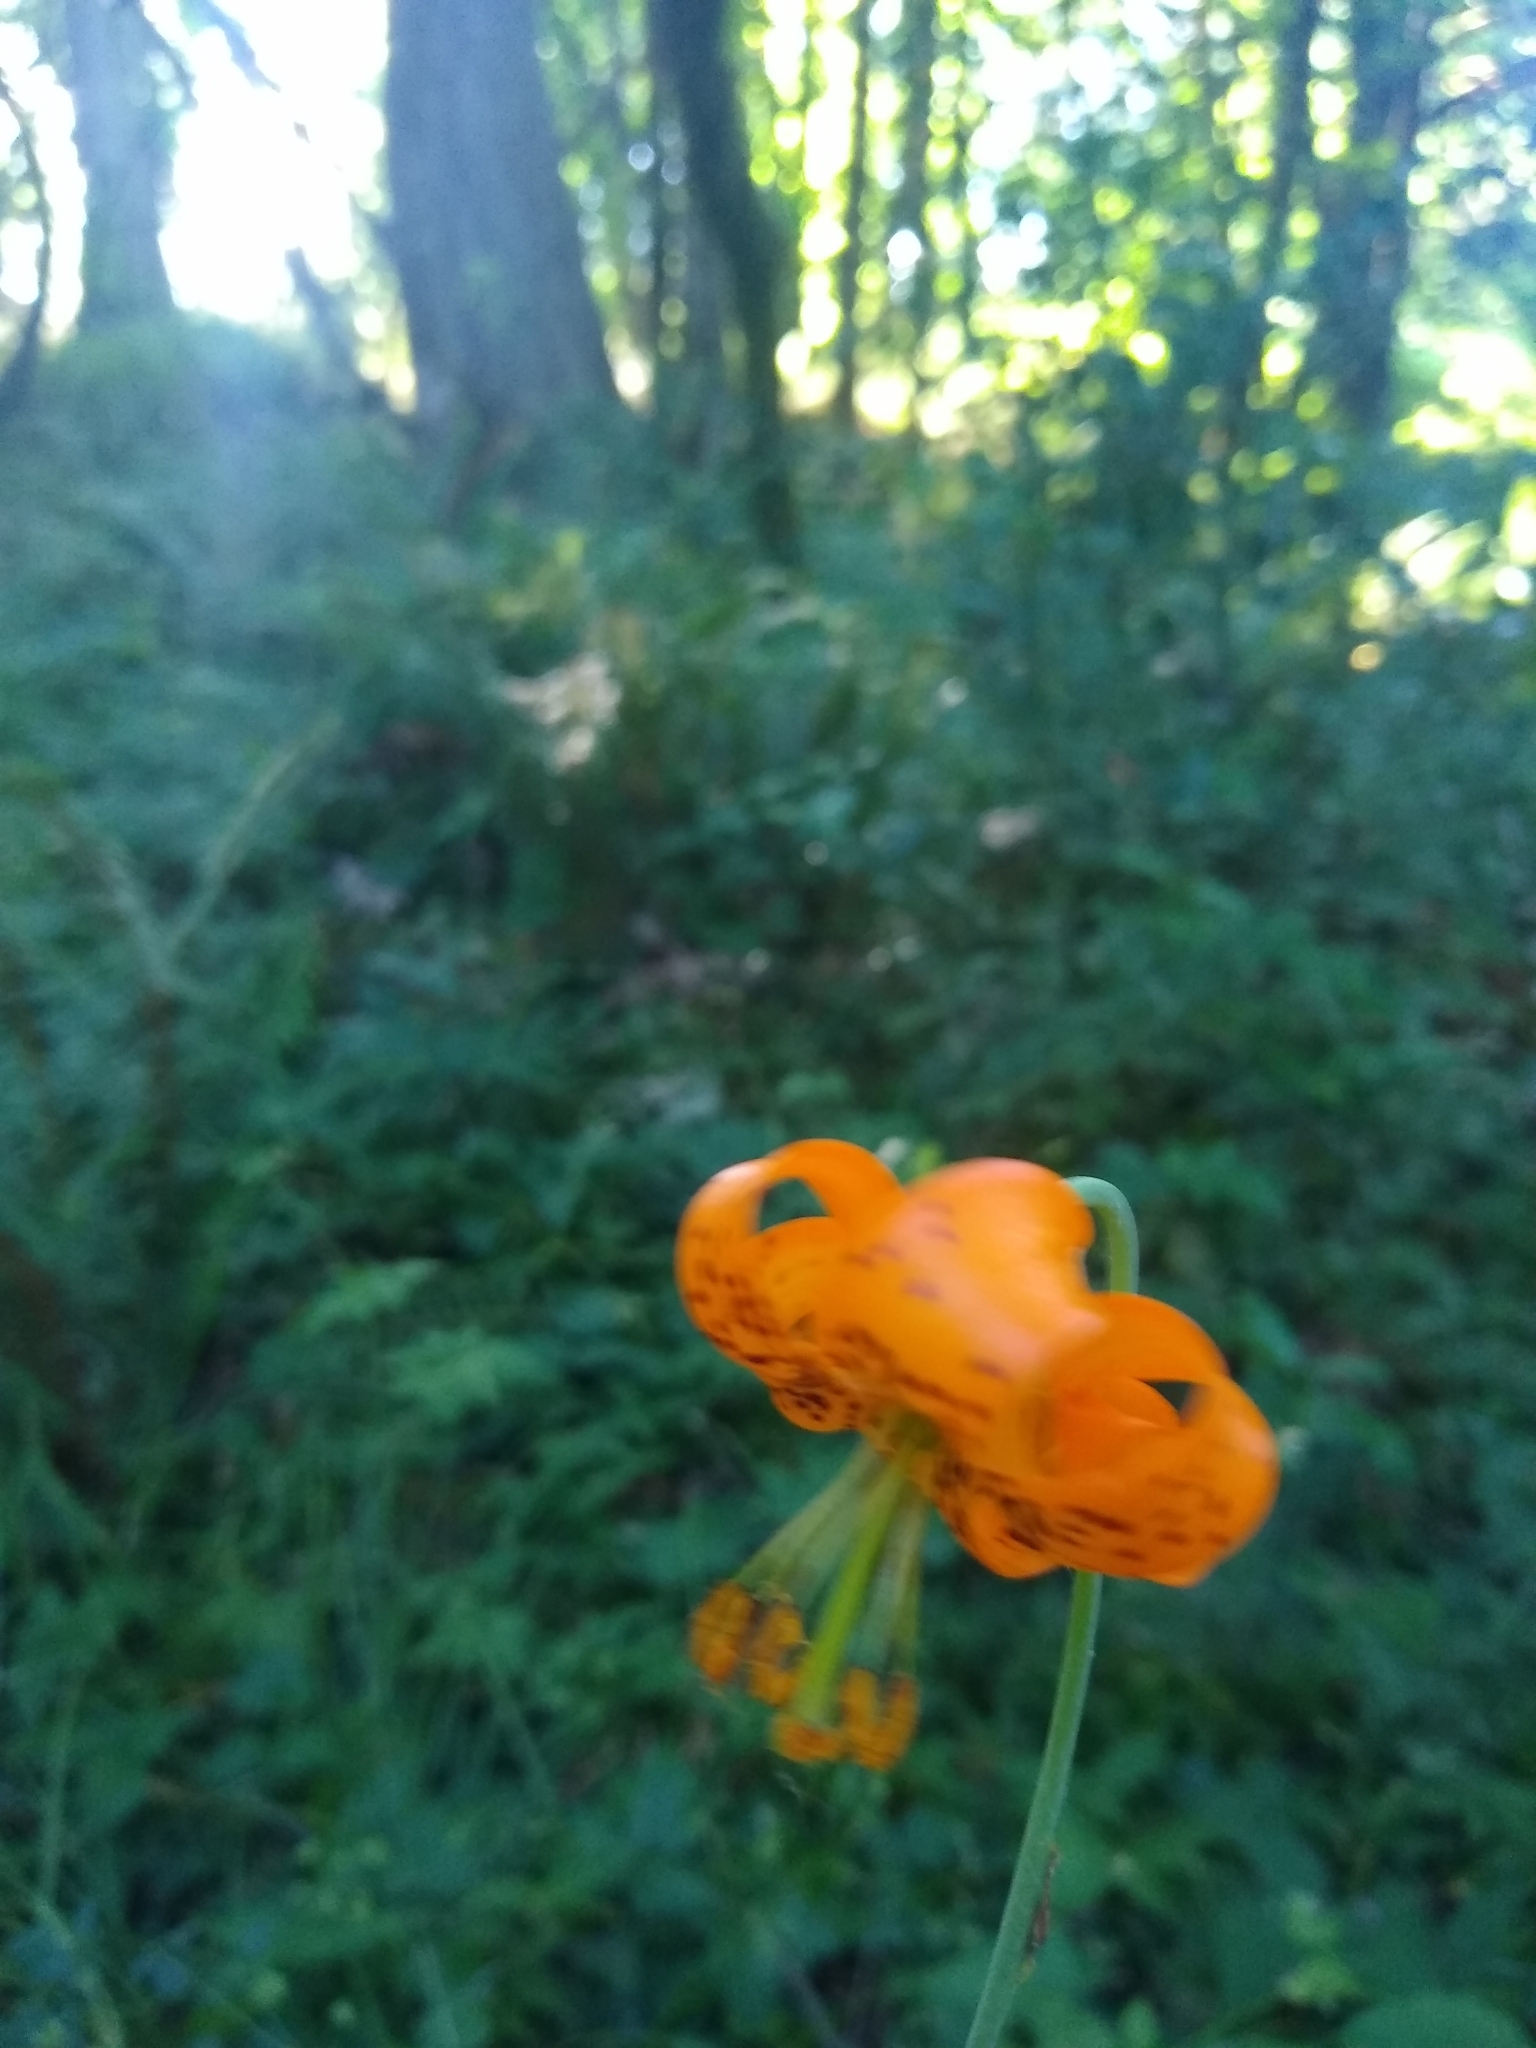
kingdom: Plantae
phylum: Tracheophyta
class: Liliopsida
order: Liliales
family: Liliaceae
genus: Lilium
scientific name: Lilium columbianum
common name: Columbia lily
